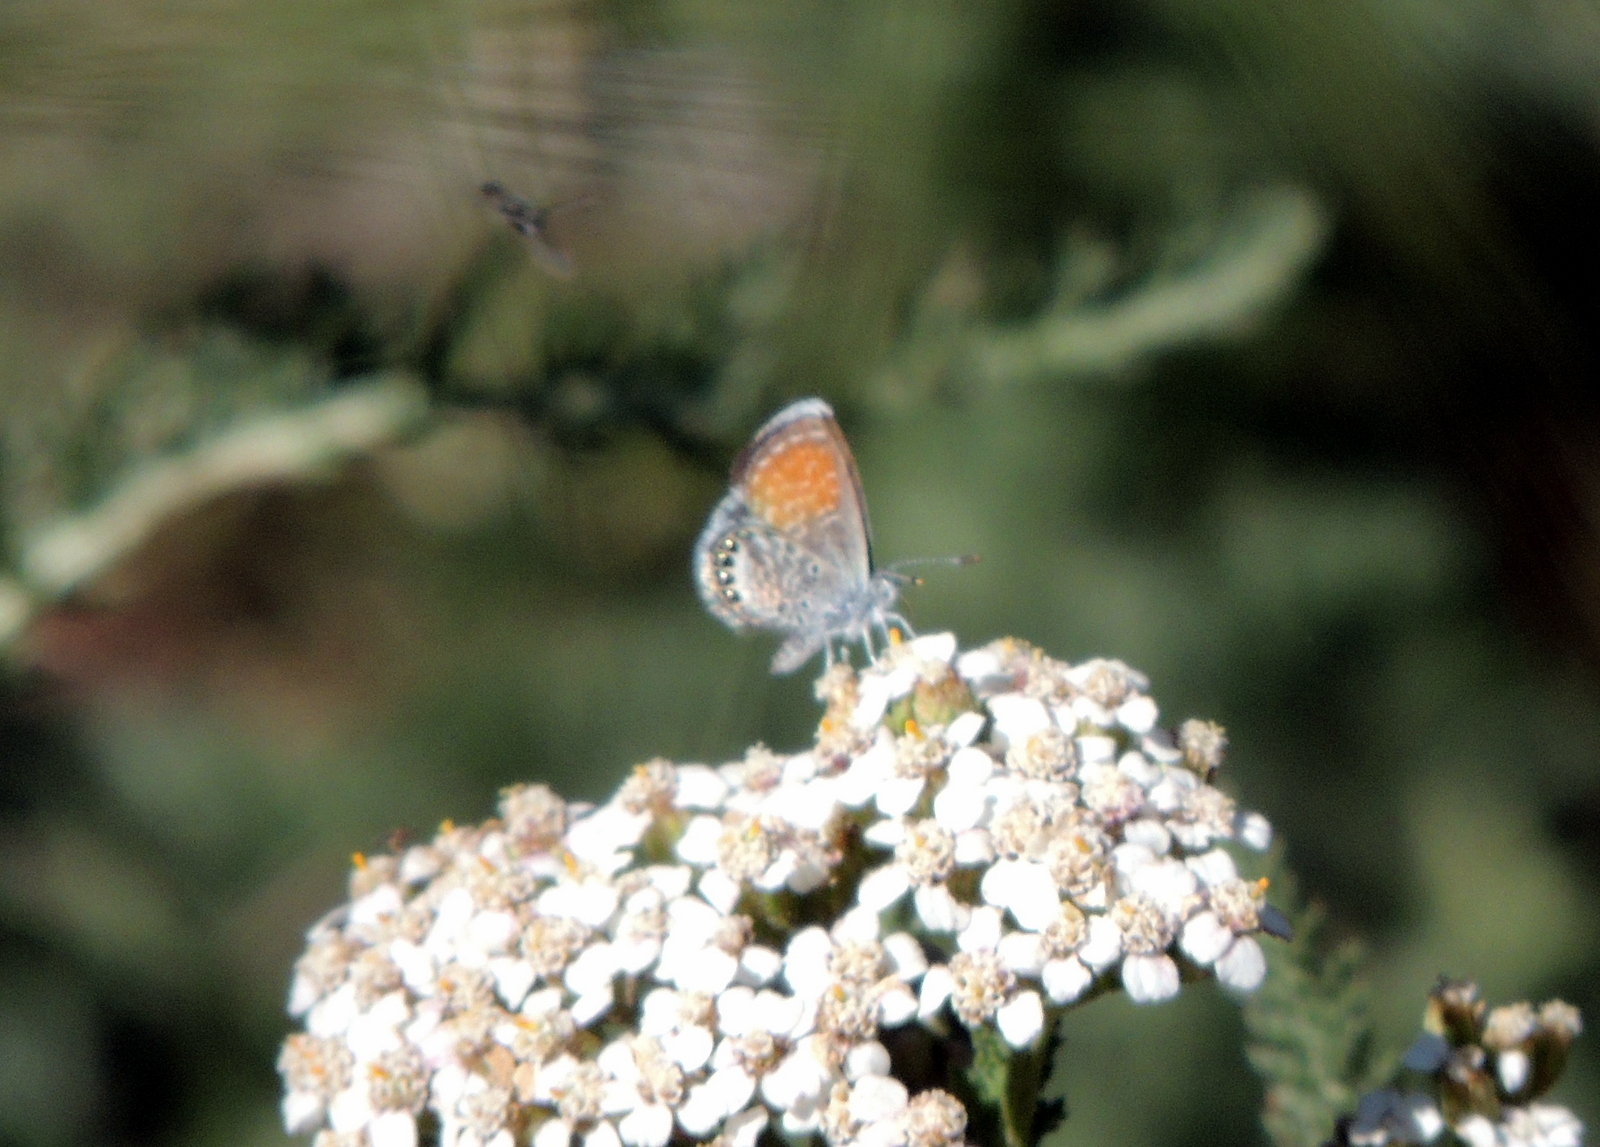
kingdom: Animalia
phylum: Arthropoda
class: Insecta
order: Lepidoptera
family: Lycaenidae
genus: Brephidium
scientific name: Brephidium exilis
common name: Pygmy blue
